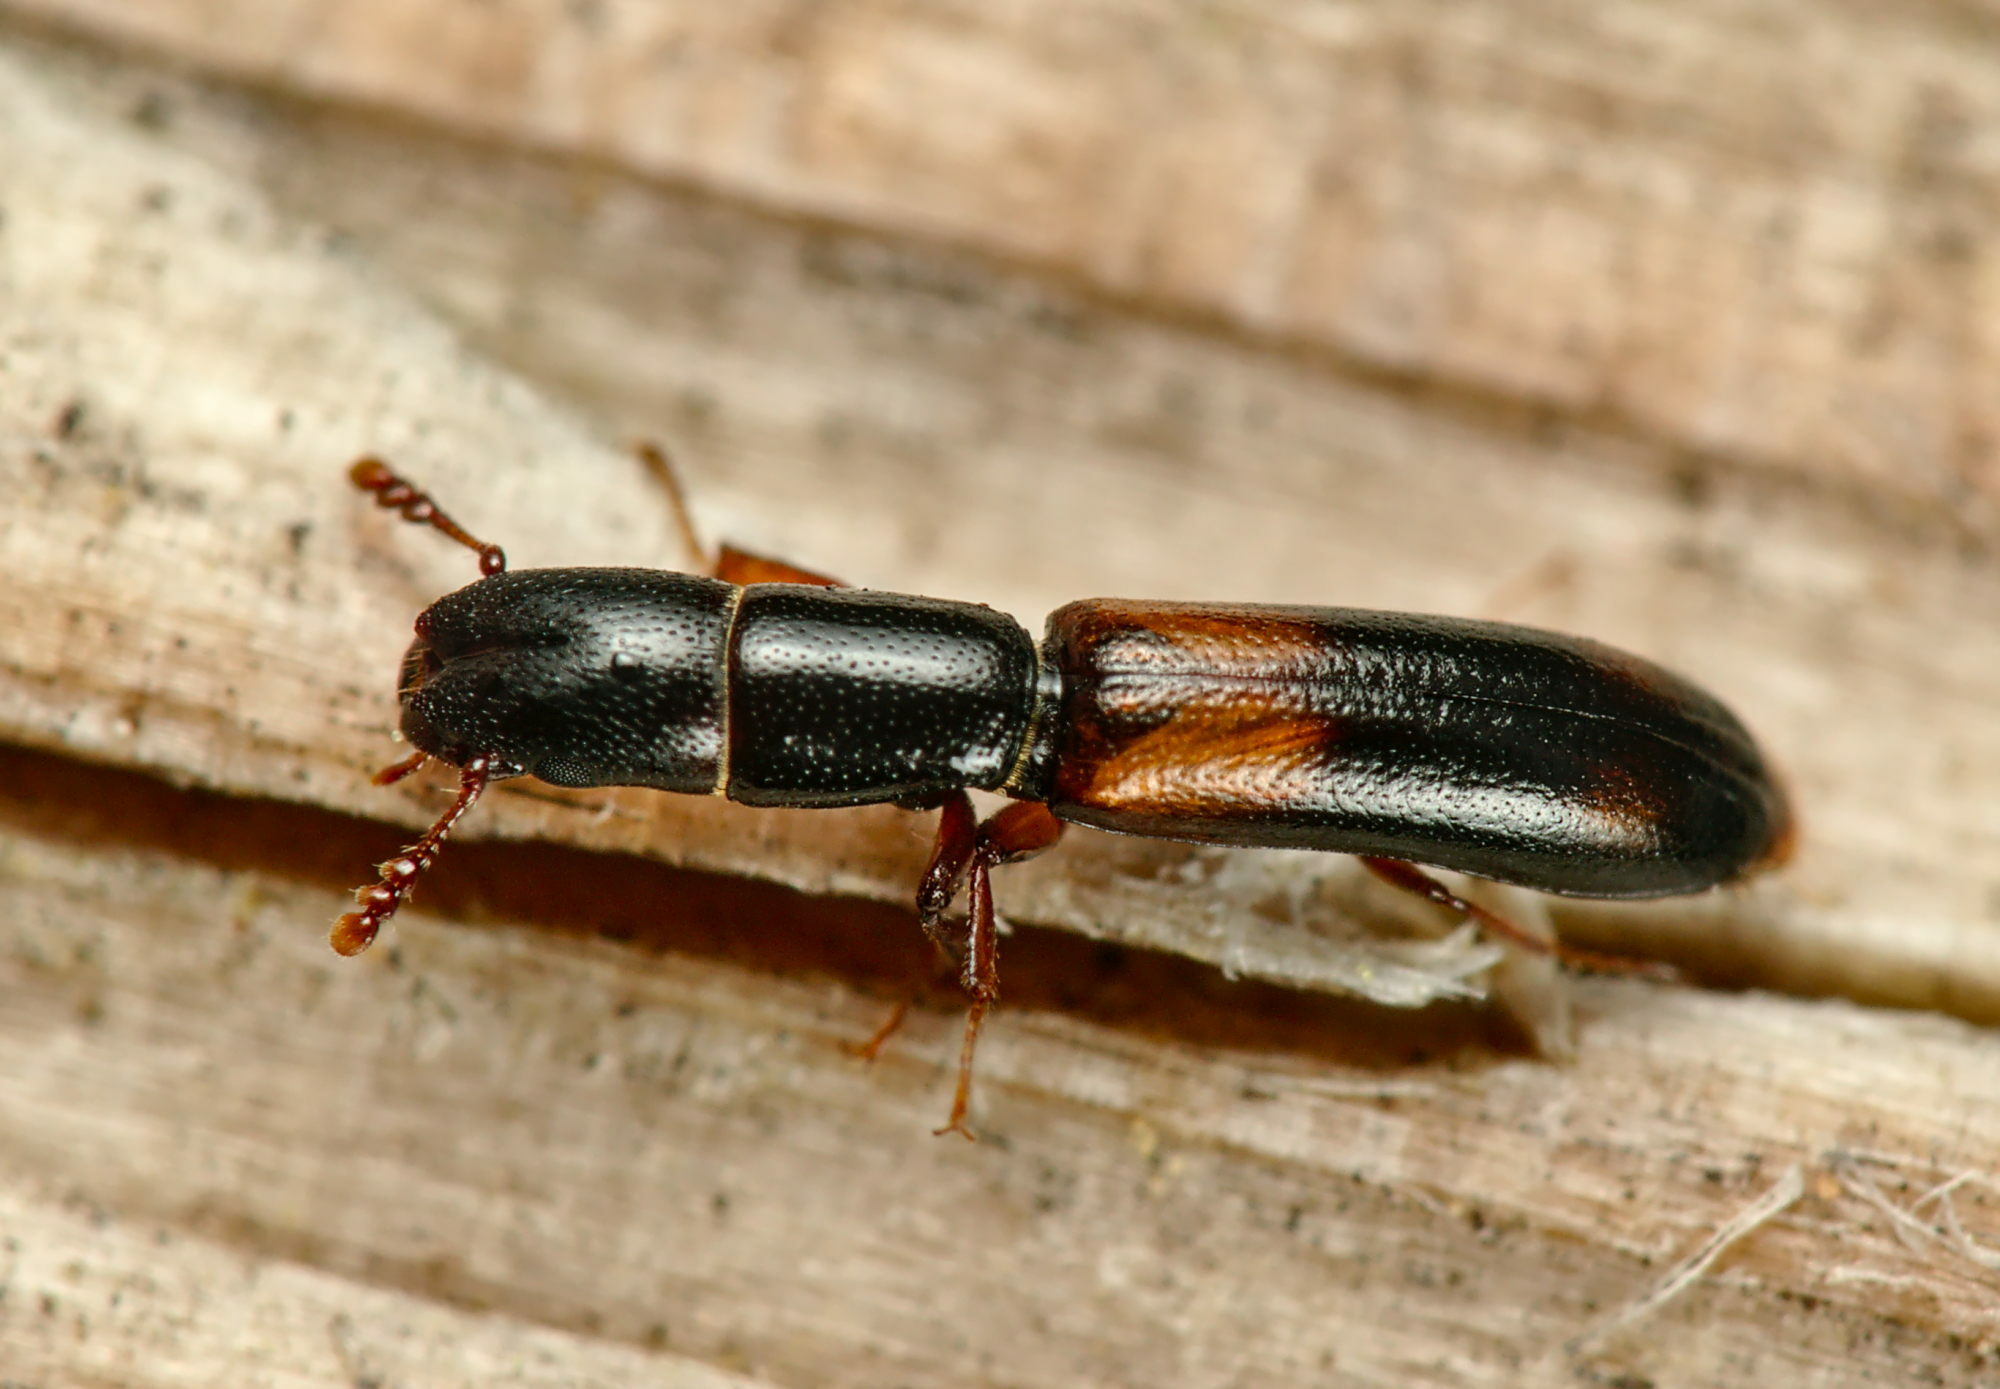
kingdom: Animalia
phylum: Arthropoda
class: Insecta
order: Coleoptera
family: Trogossitidae
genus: Nemozoma
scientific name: Nemozoma elongatum
